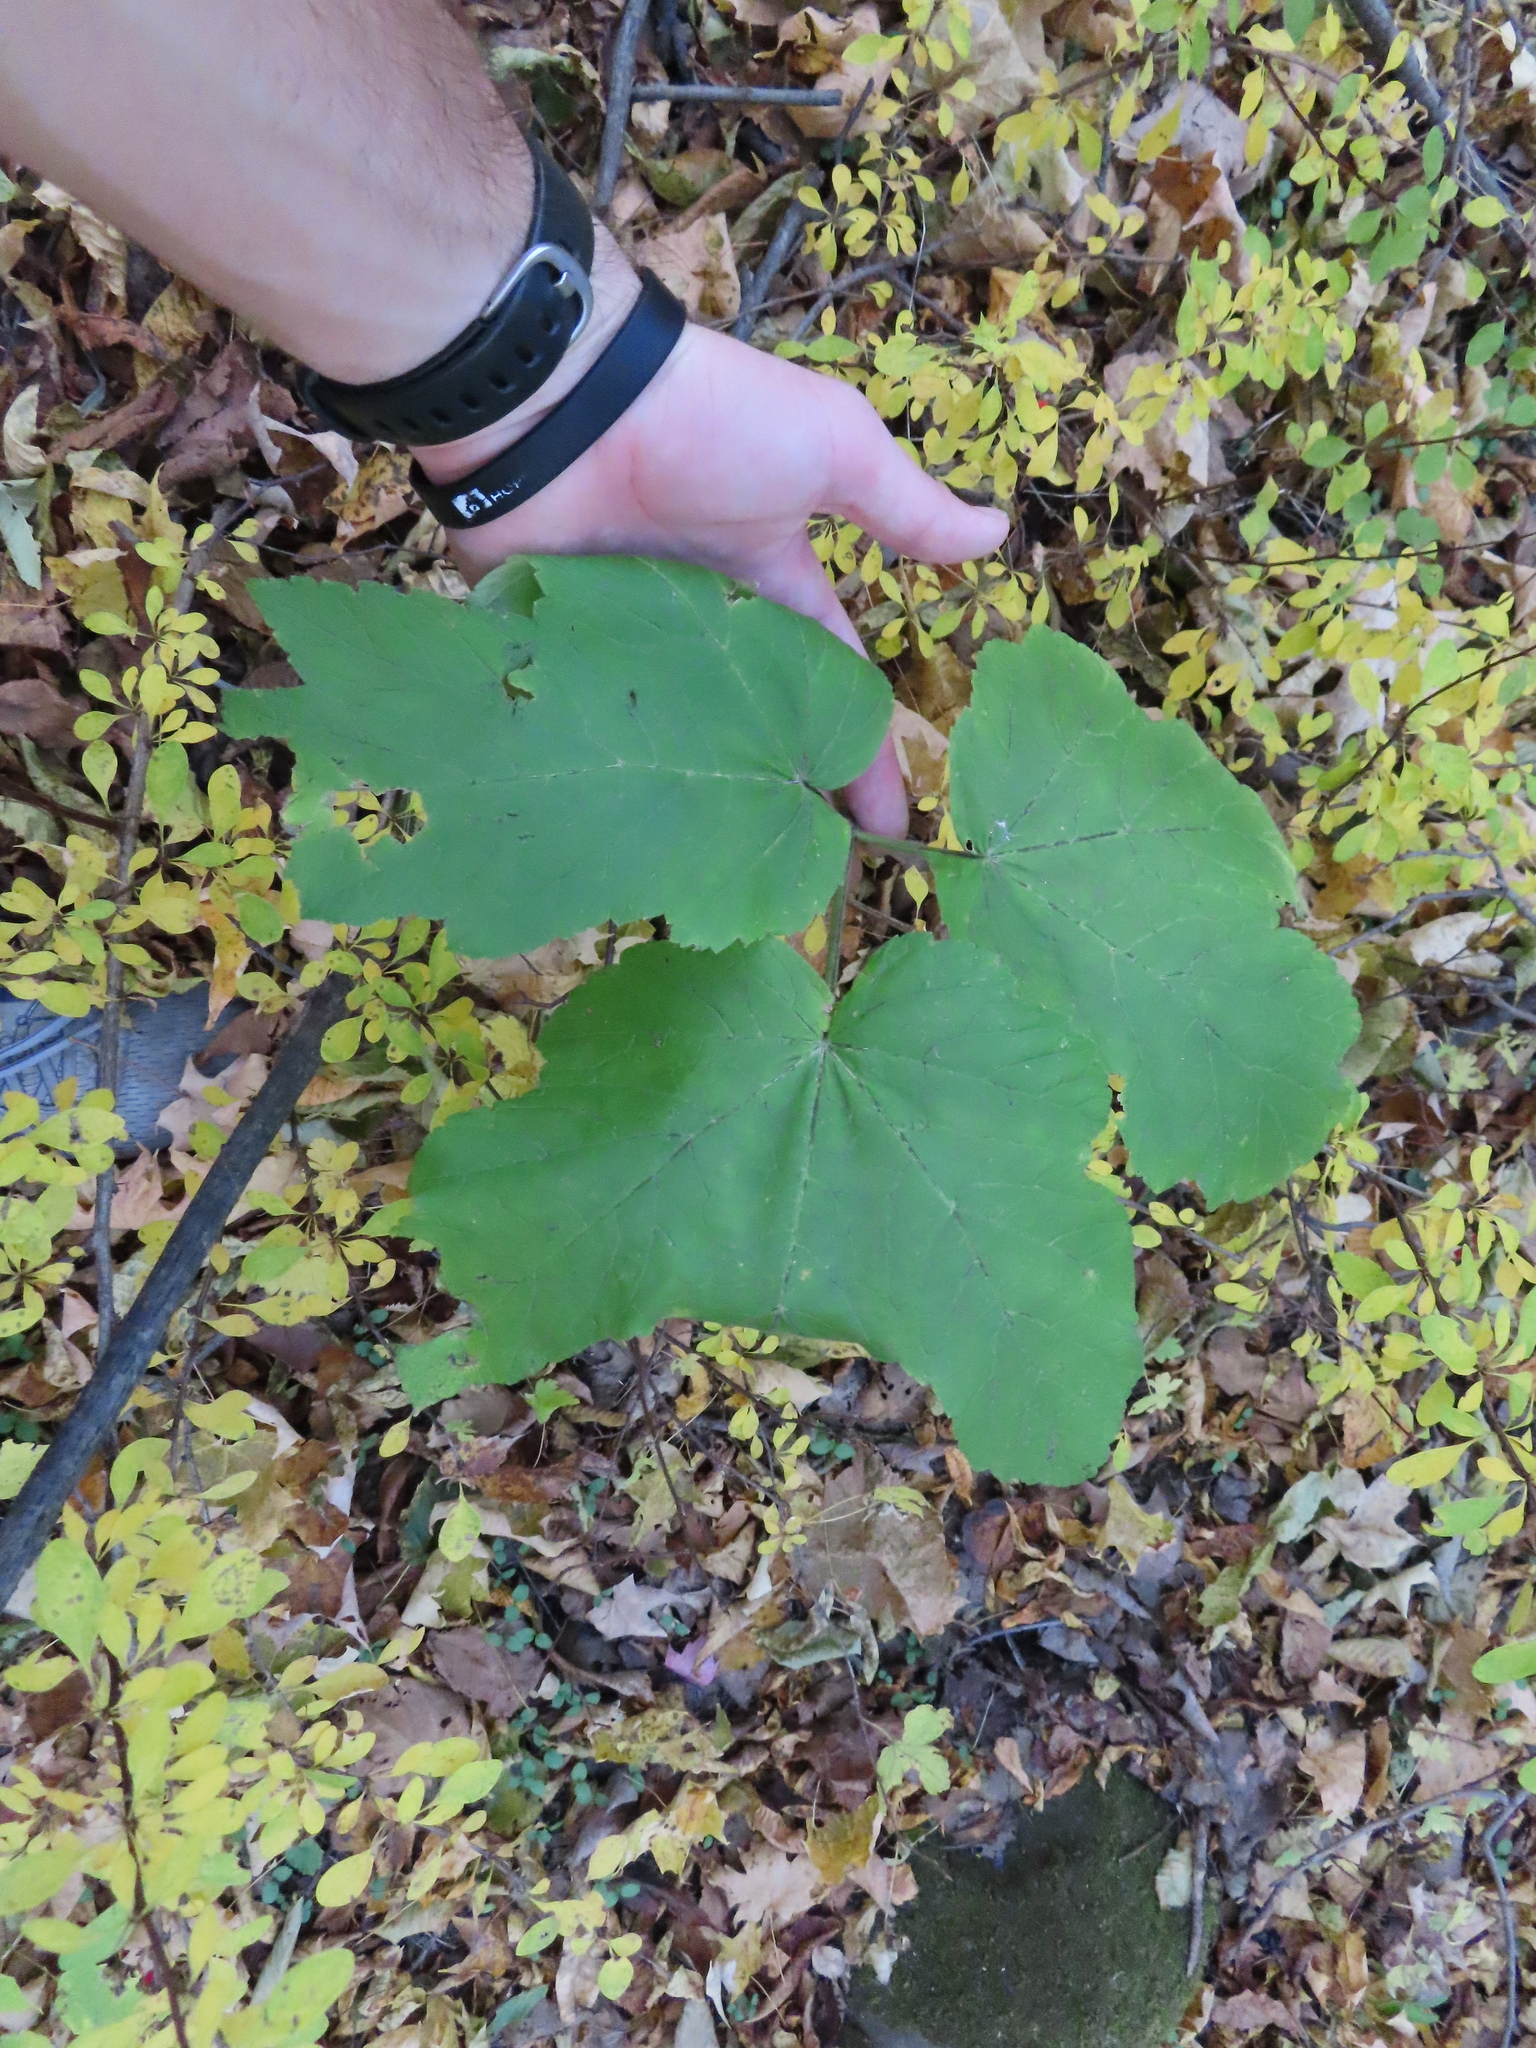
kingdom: Plantae
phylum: Tracheophyta
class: Magnoliopsida
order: Apiales
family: Apiaceae
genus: Heracleum
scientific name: Heracleum maximum
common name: American cow parsnip
